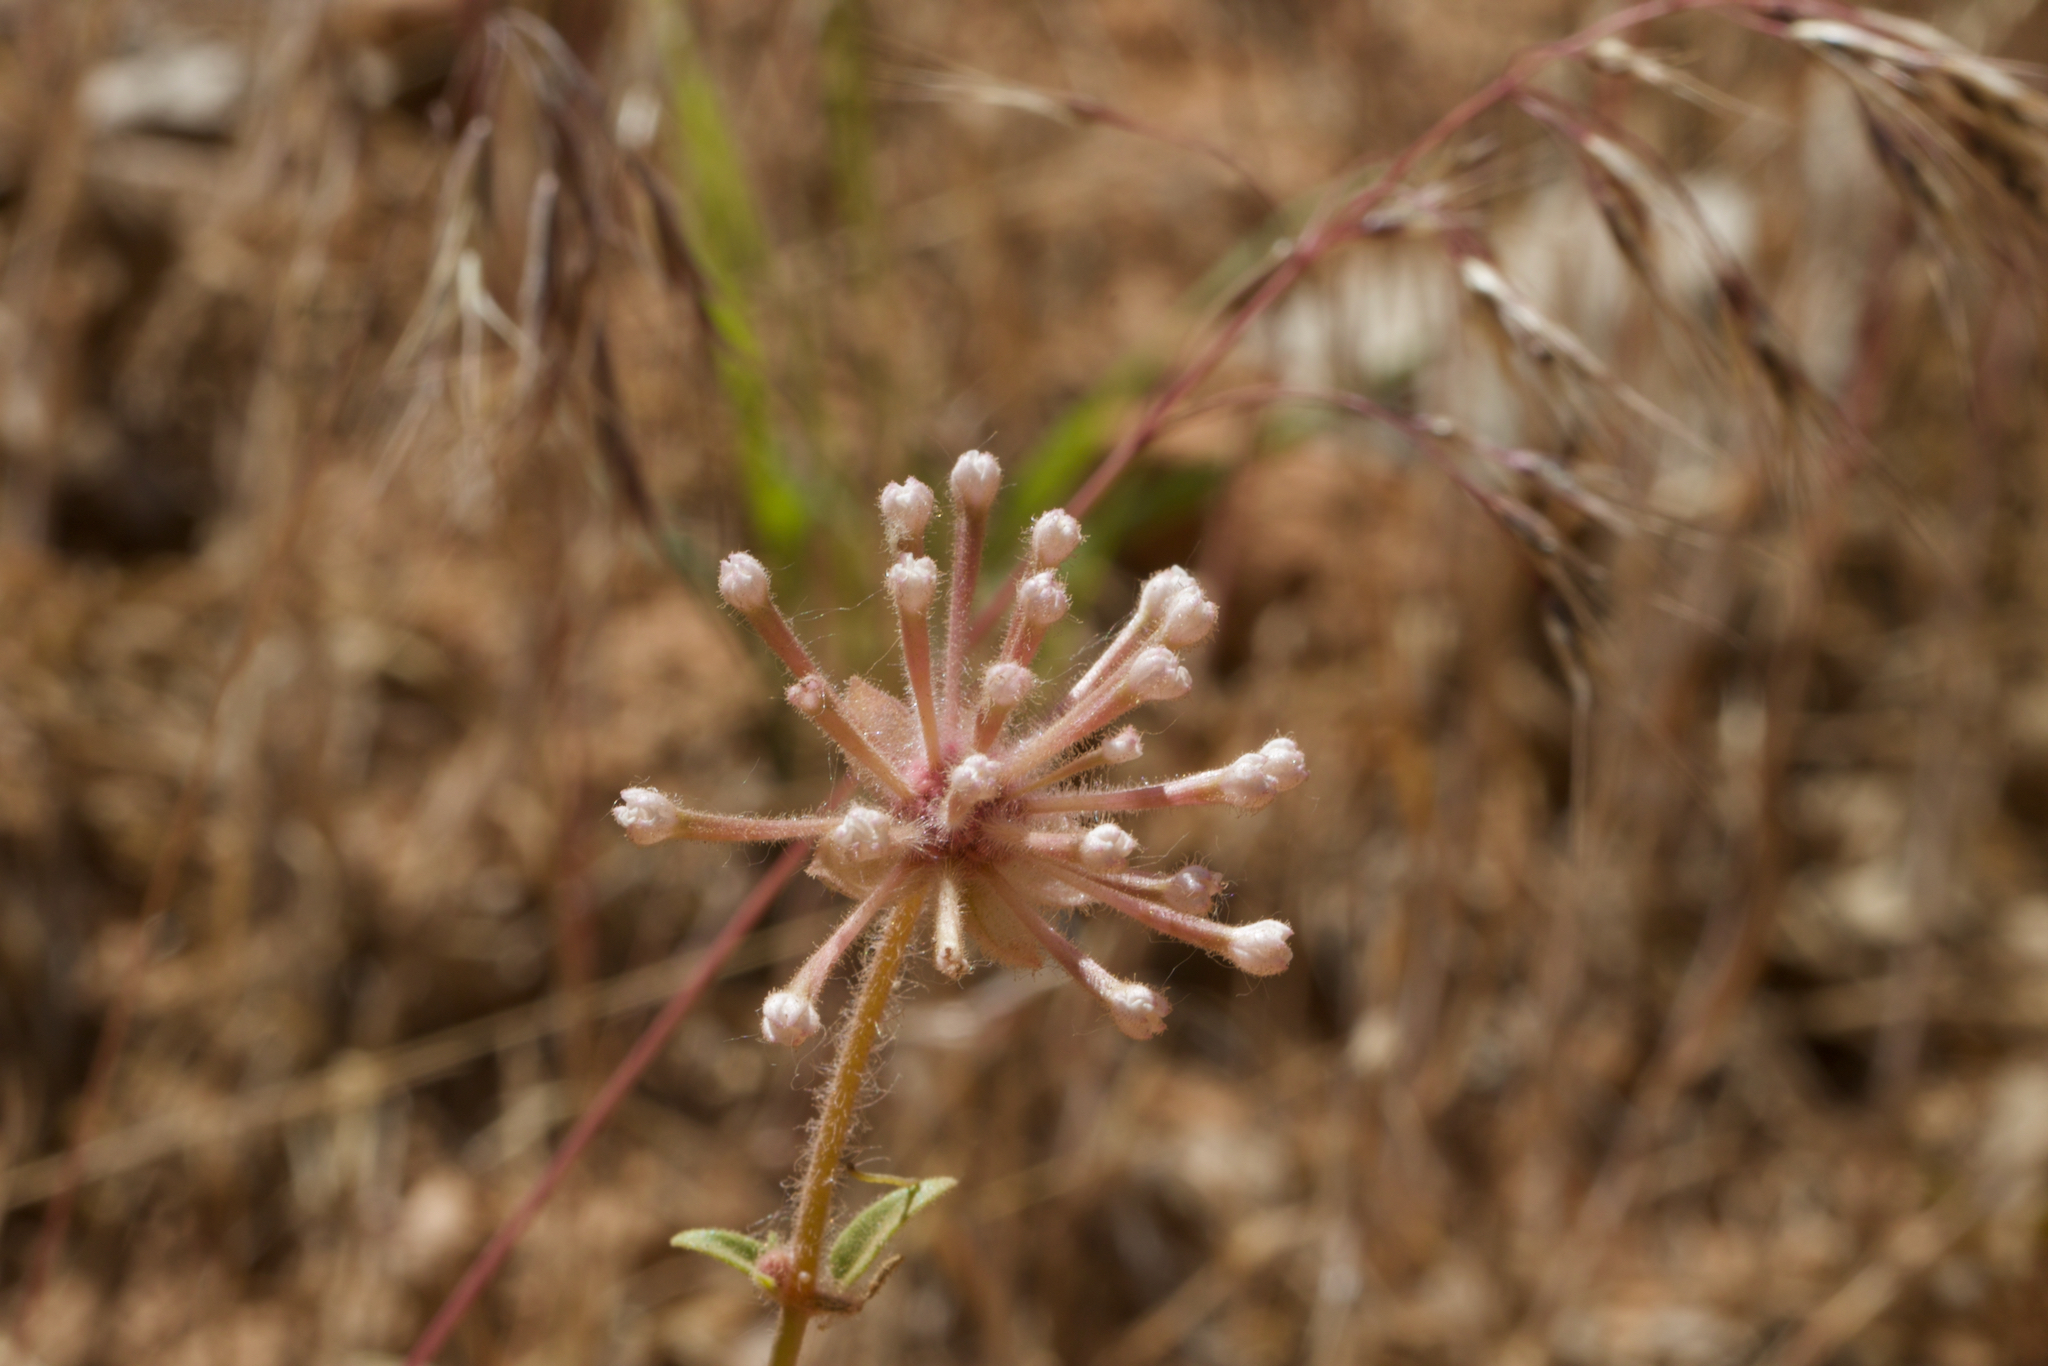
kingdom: Plantae
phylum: Tracheophyta
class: Magnoliopsida
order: Caryophyllales
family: Nyctaginaceae
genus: Abronia
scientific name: Abronia elliptica
